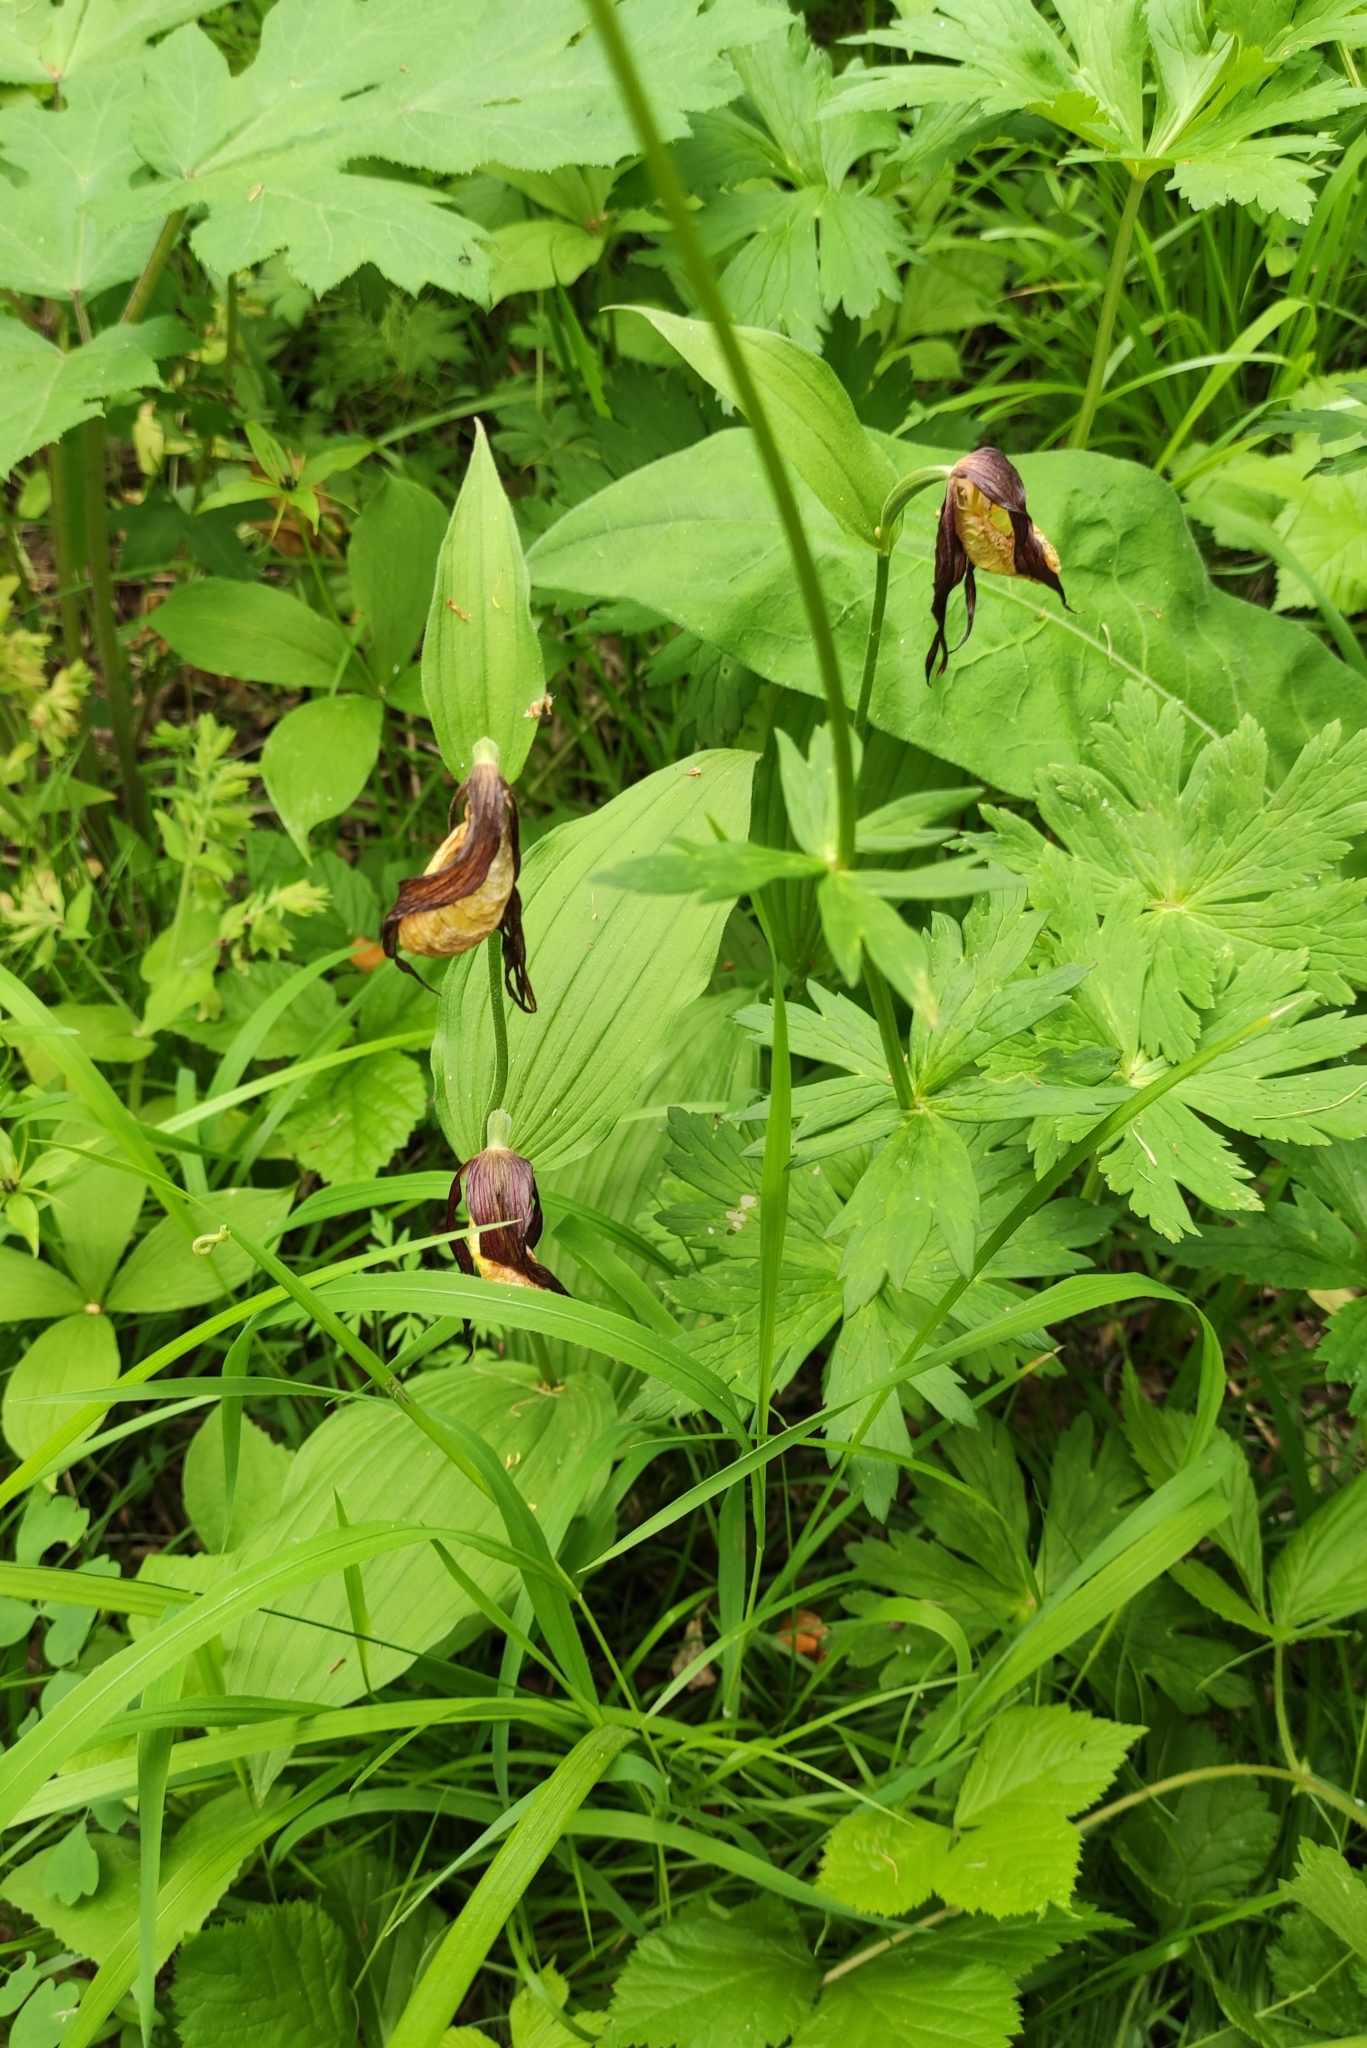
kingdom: Plantae
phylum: Tracheophyta
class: Liliopsida
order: Asparagales
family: Orchidaceae
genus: Cypripedium
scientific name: Cypripedium calceolus
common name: Lady's-slipper
